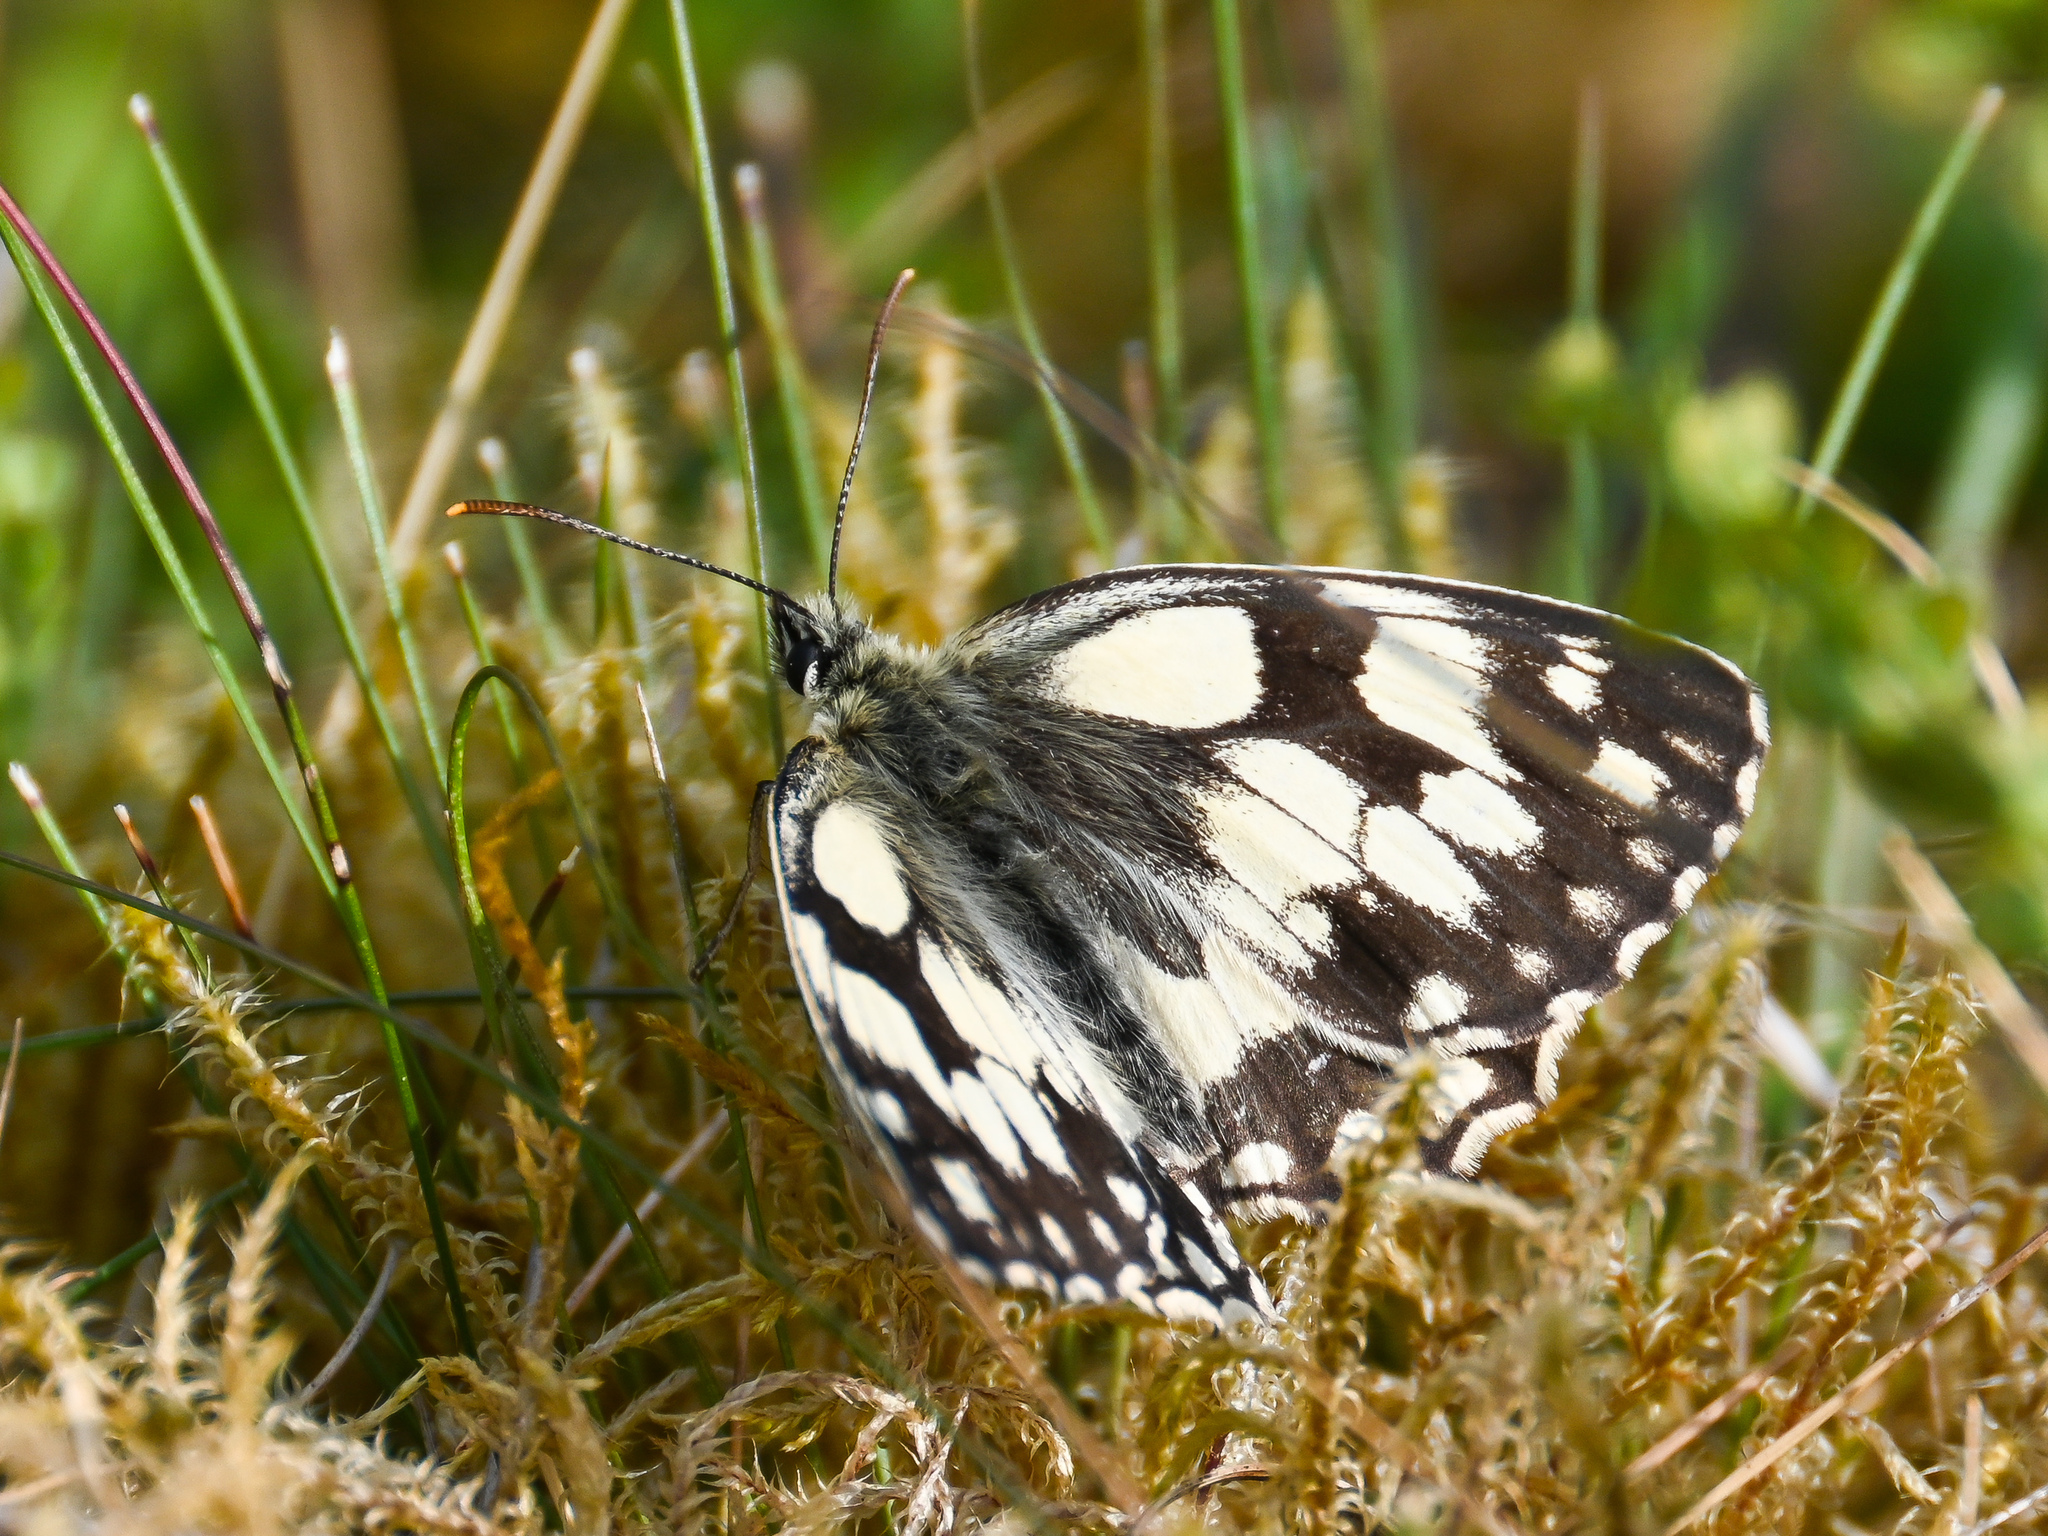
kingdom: Animalia
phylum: Arthropoda
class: Insecta
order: Lepidoptera
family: Nymphalidae
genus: Melanargia
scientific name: Melanargia galathea
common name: Marbled white
